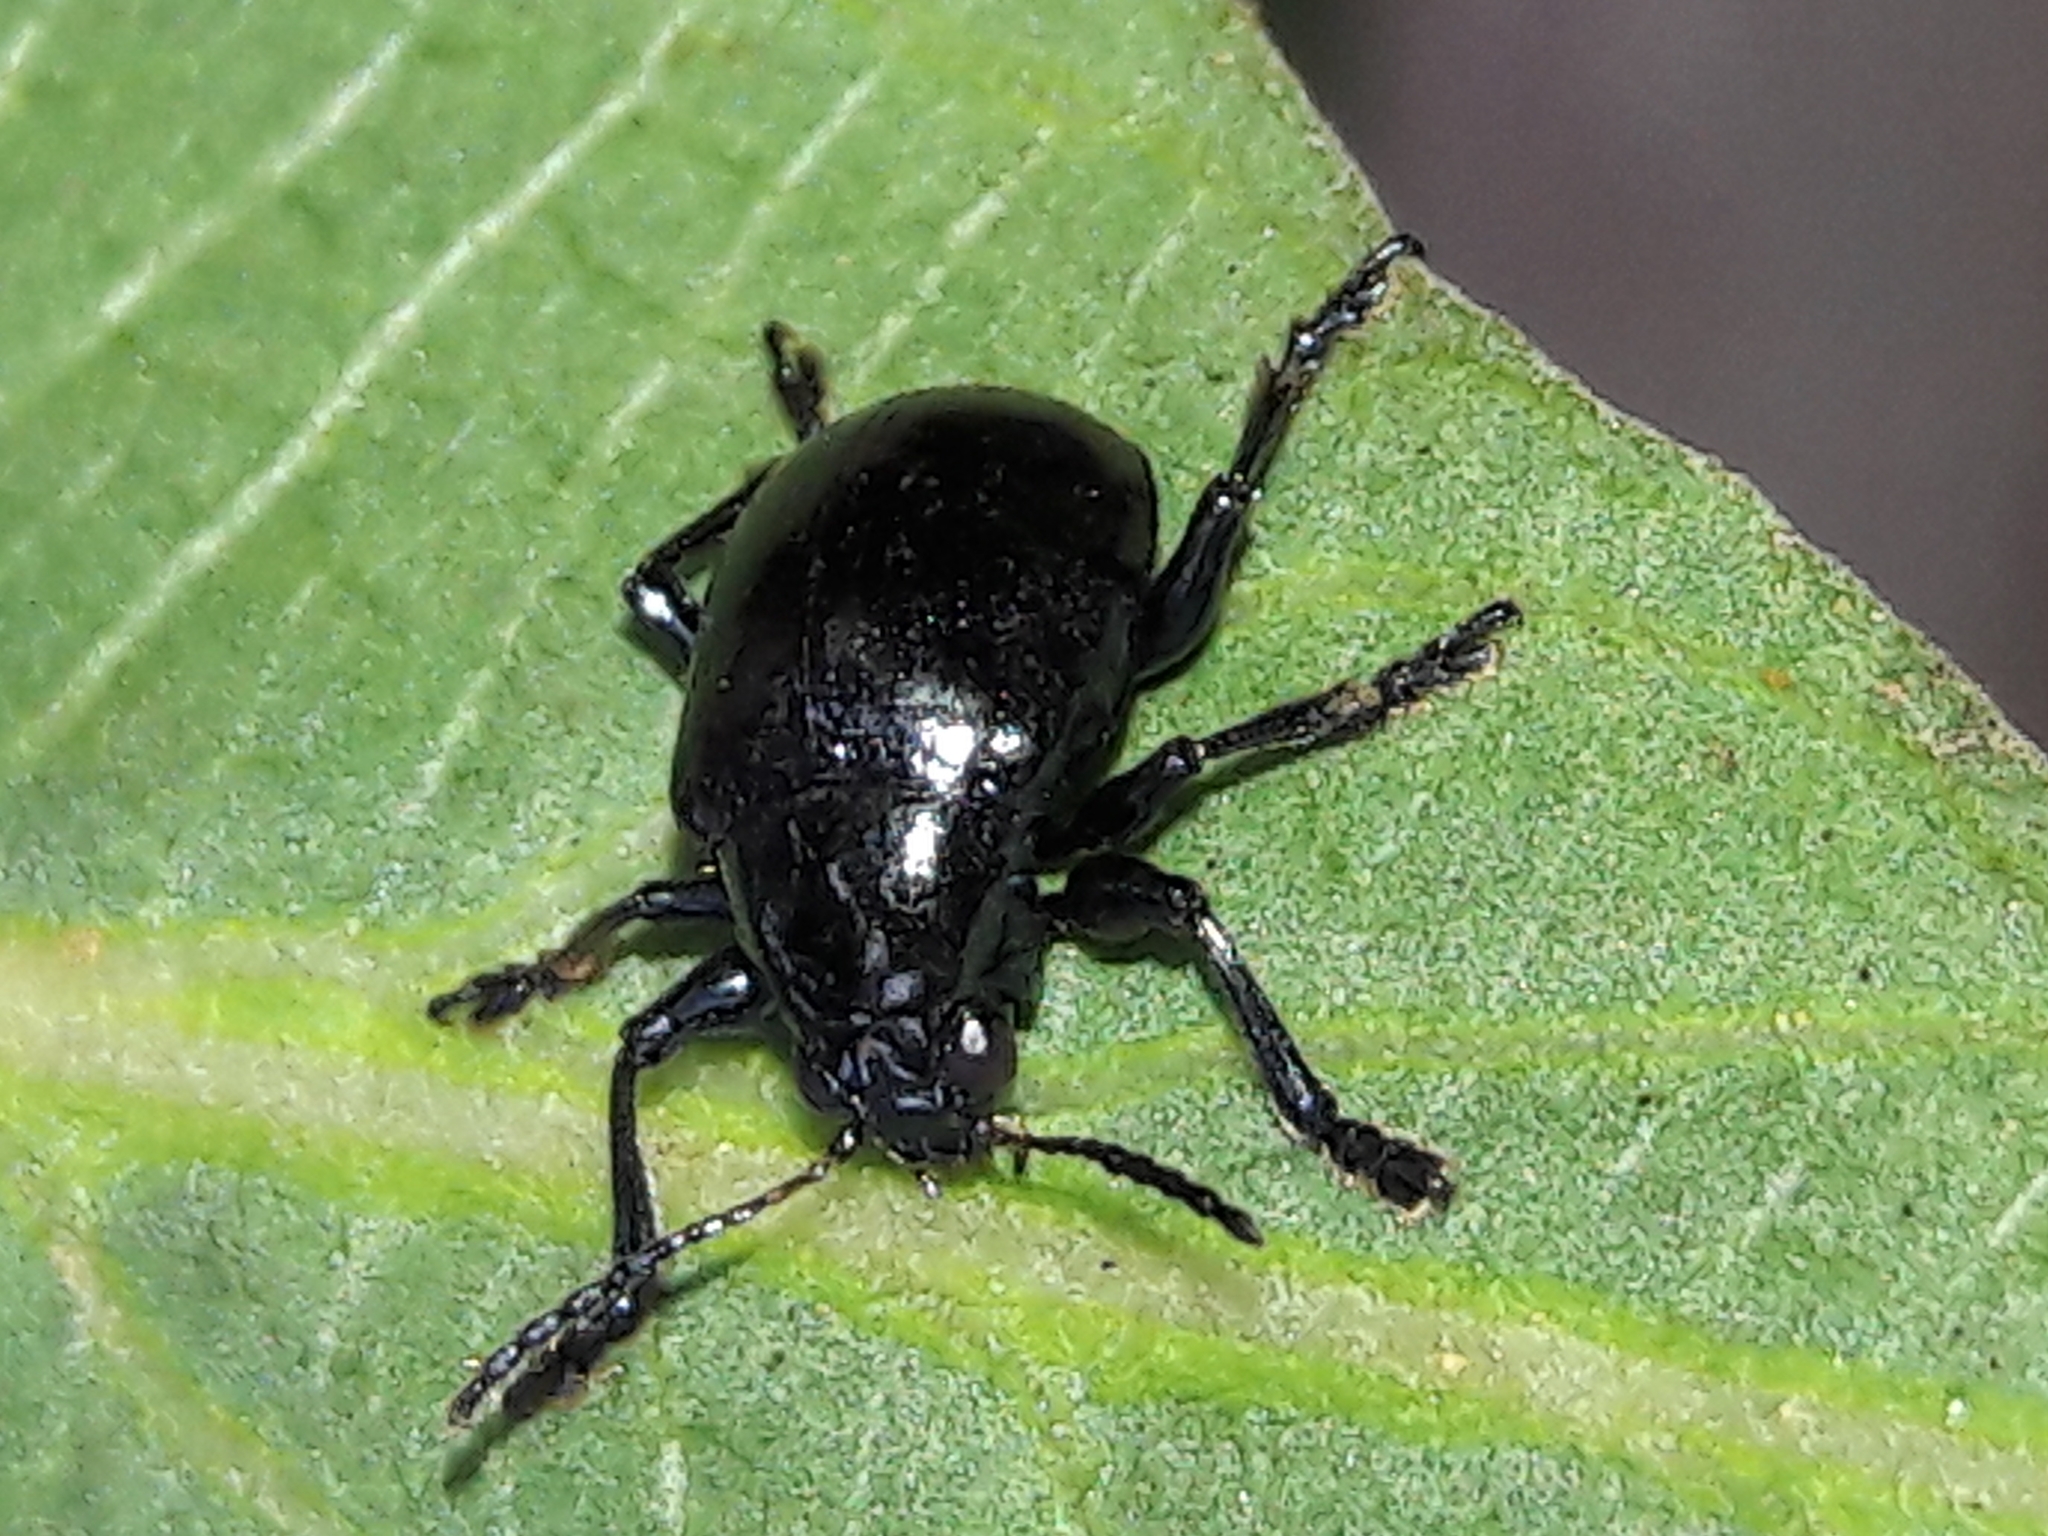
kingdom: Animalia
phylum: Arthropoda
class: Insecta
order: Coleoptera
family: Chrysomelidae
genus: Typophorus
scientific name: Typophorus nigritus
